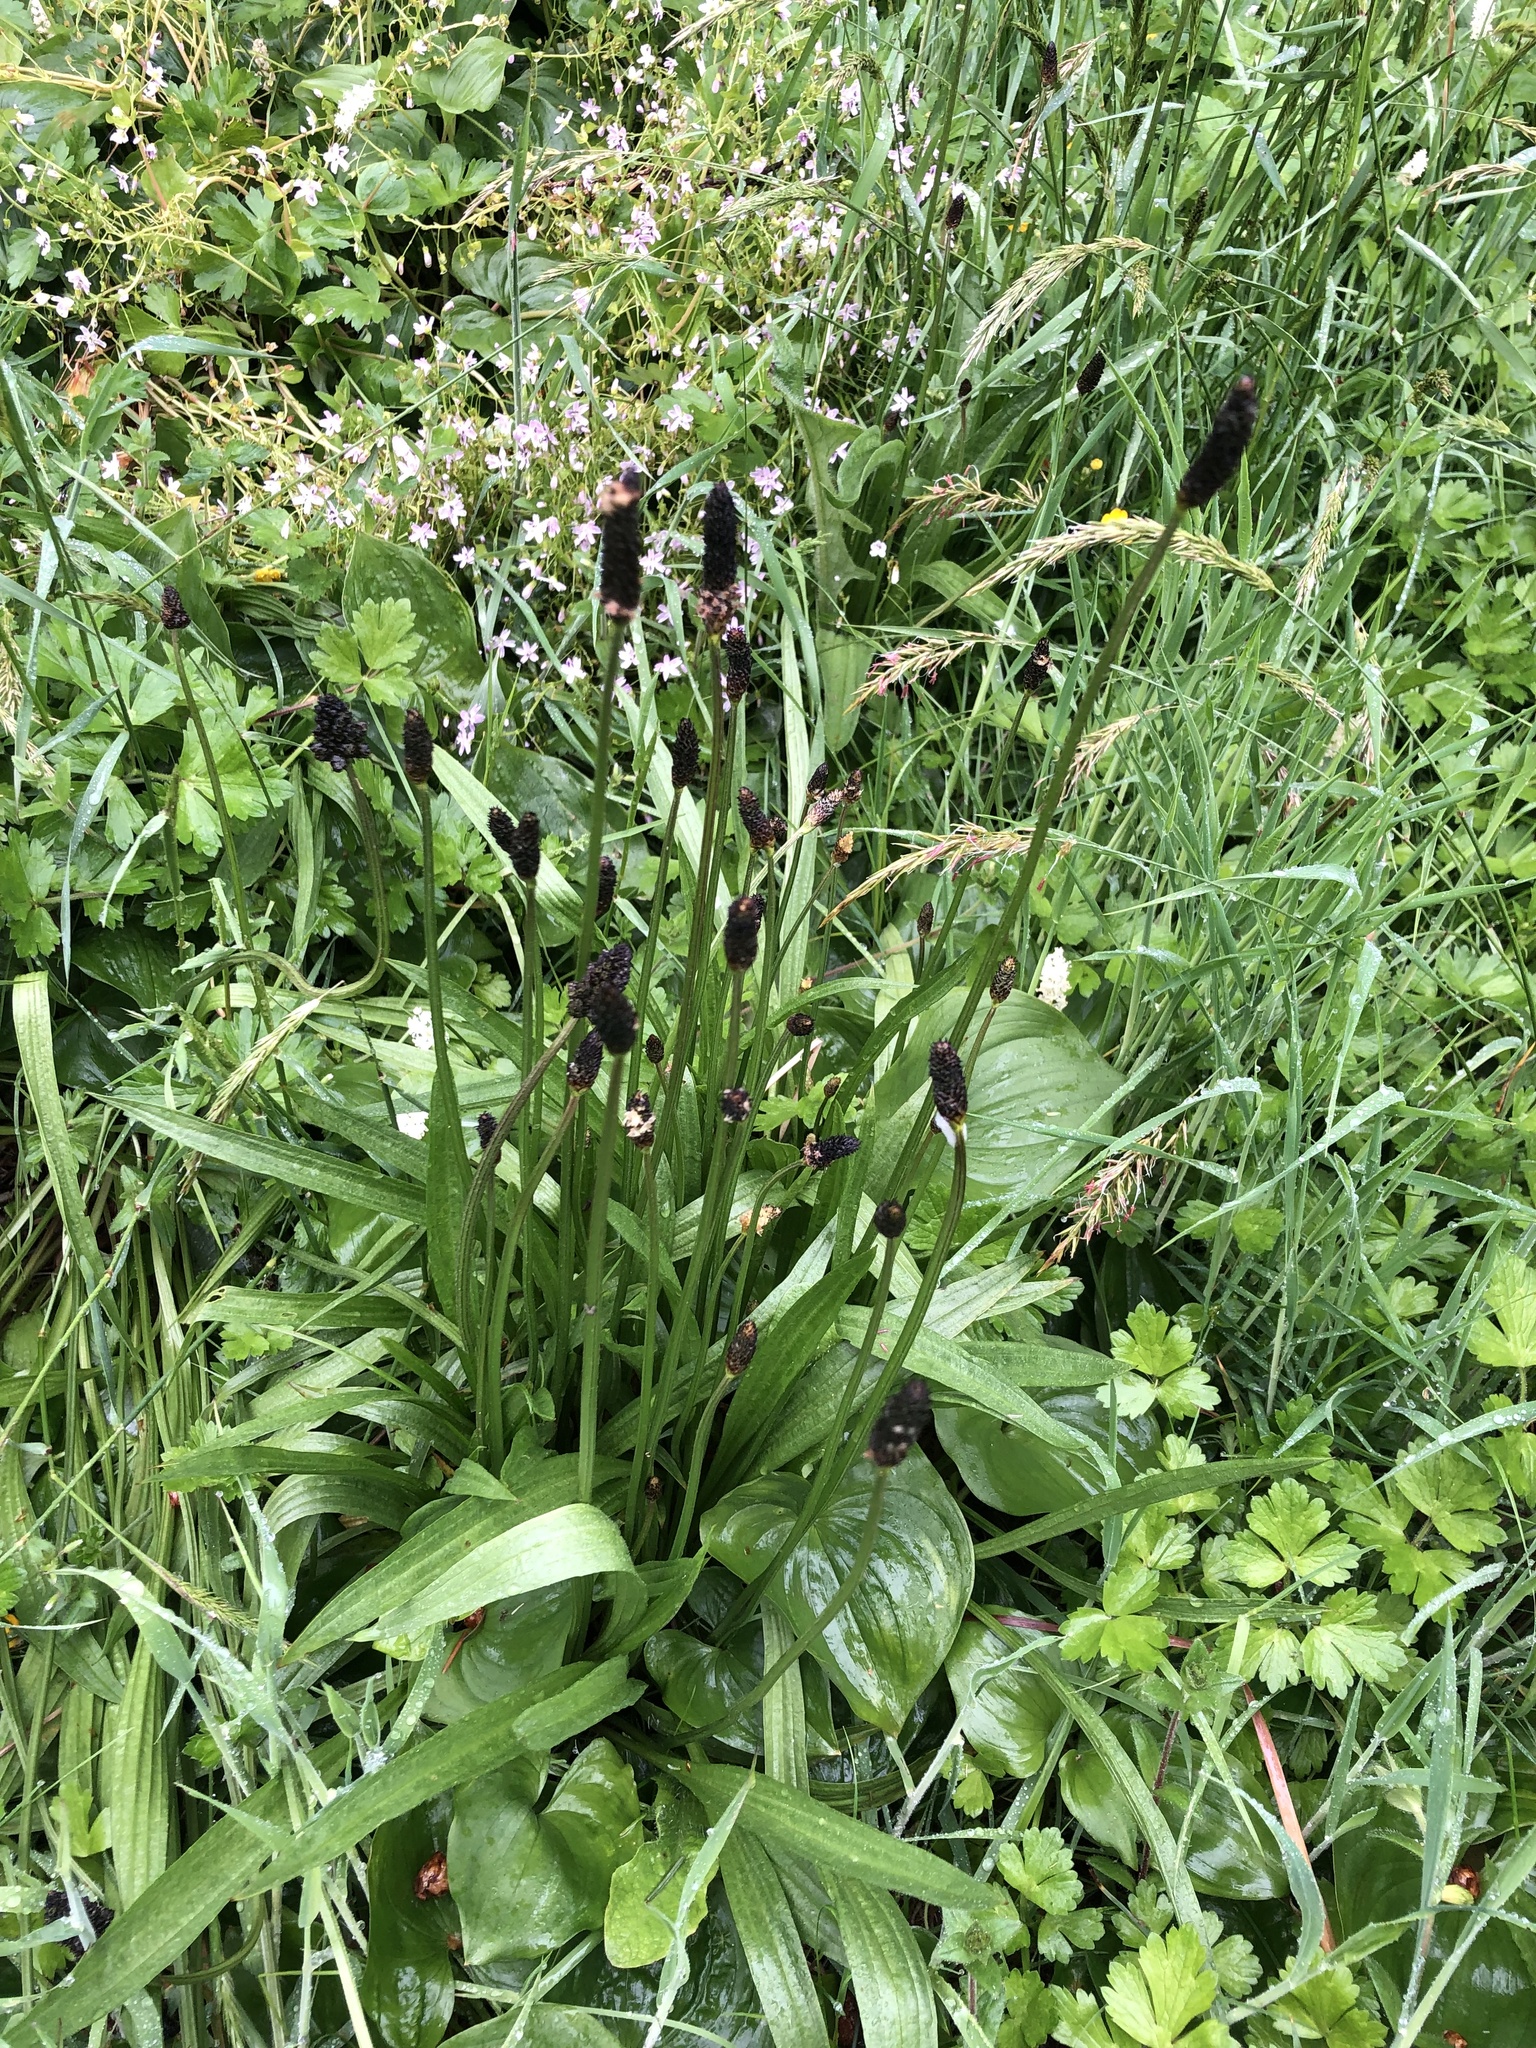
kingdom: Plantae
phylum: Tracheophyta
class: Magnoliopsida
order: Lamiales
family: Plantaginaceae
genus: Plantago
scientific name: Plantago lanceolata
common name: Ribwort plantain
